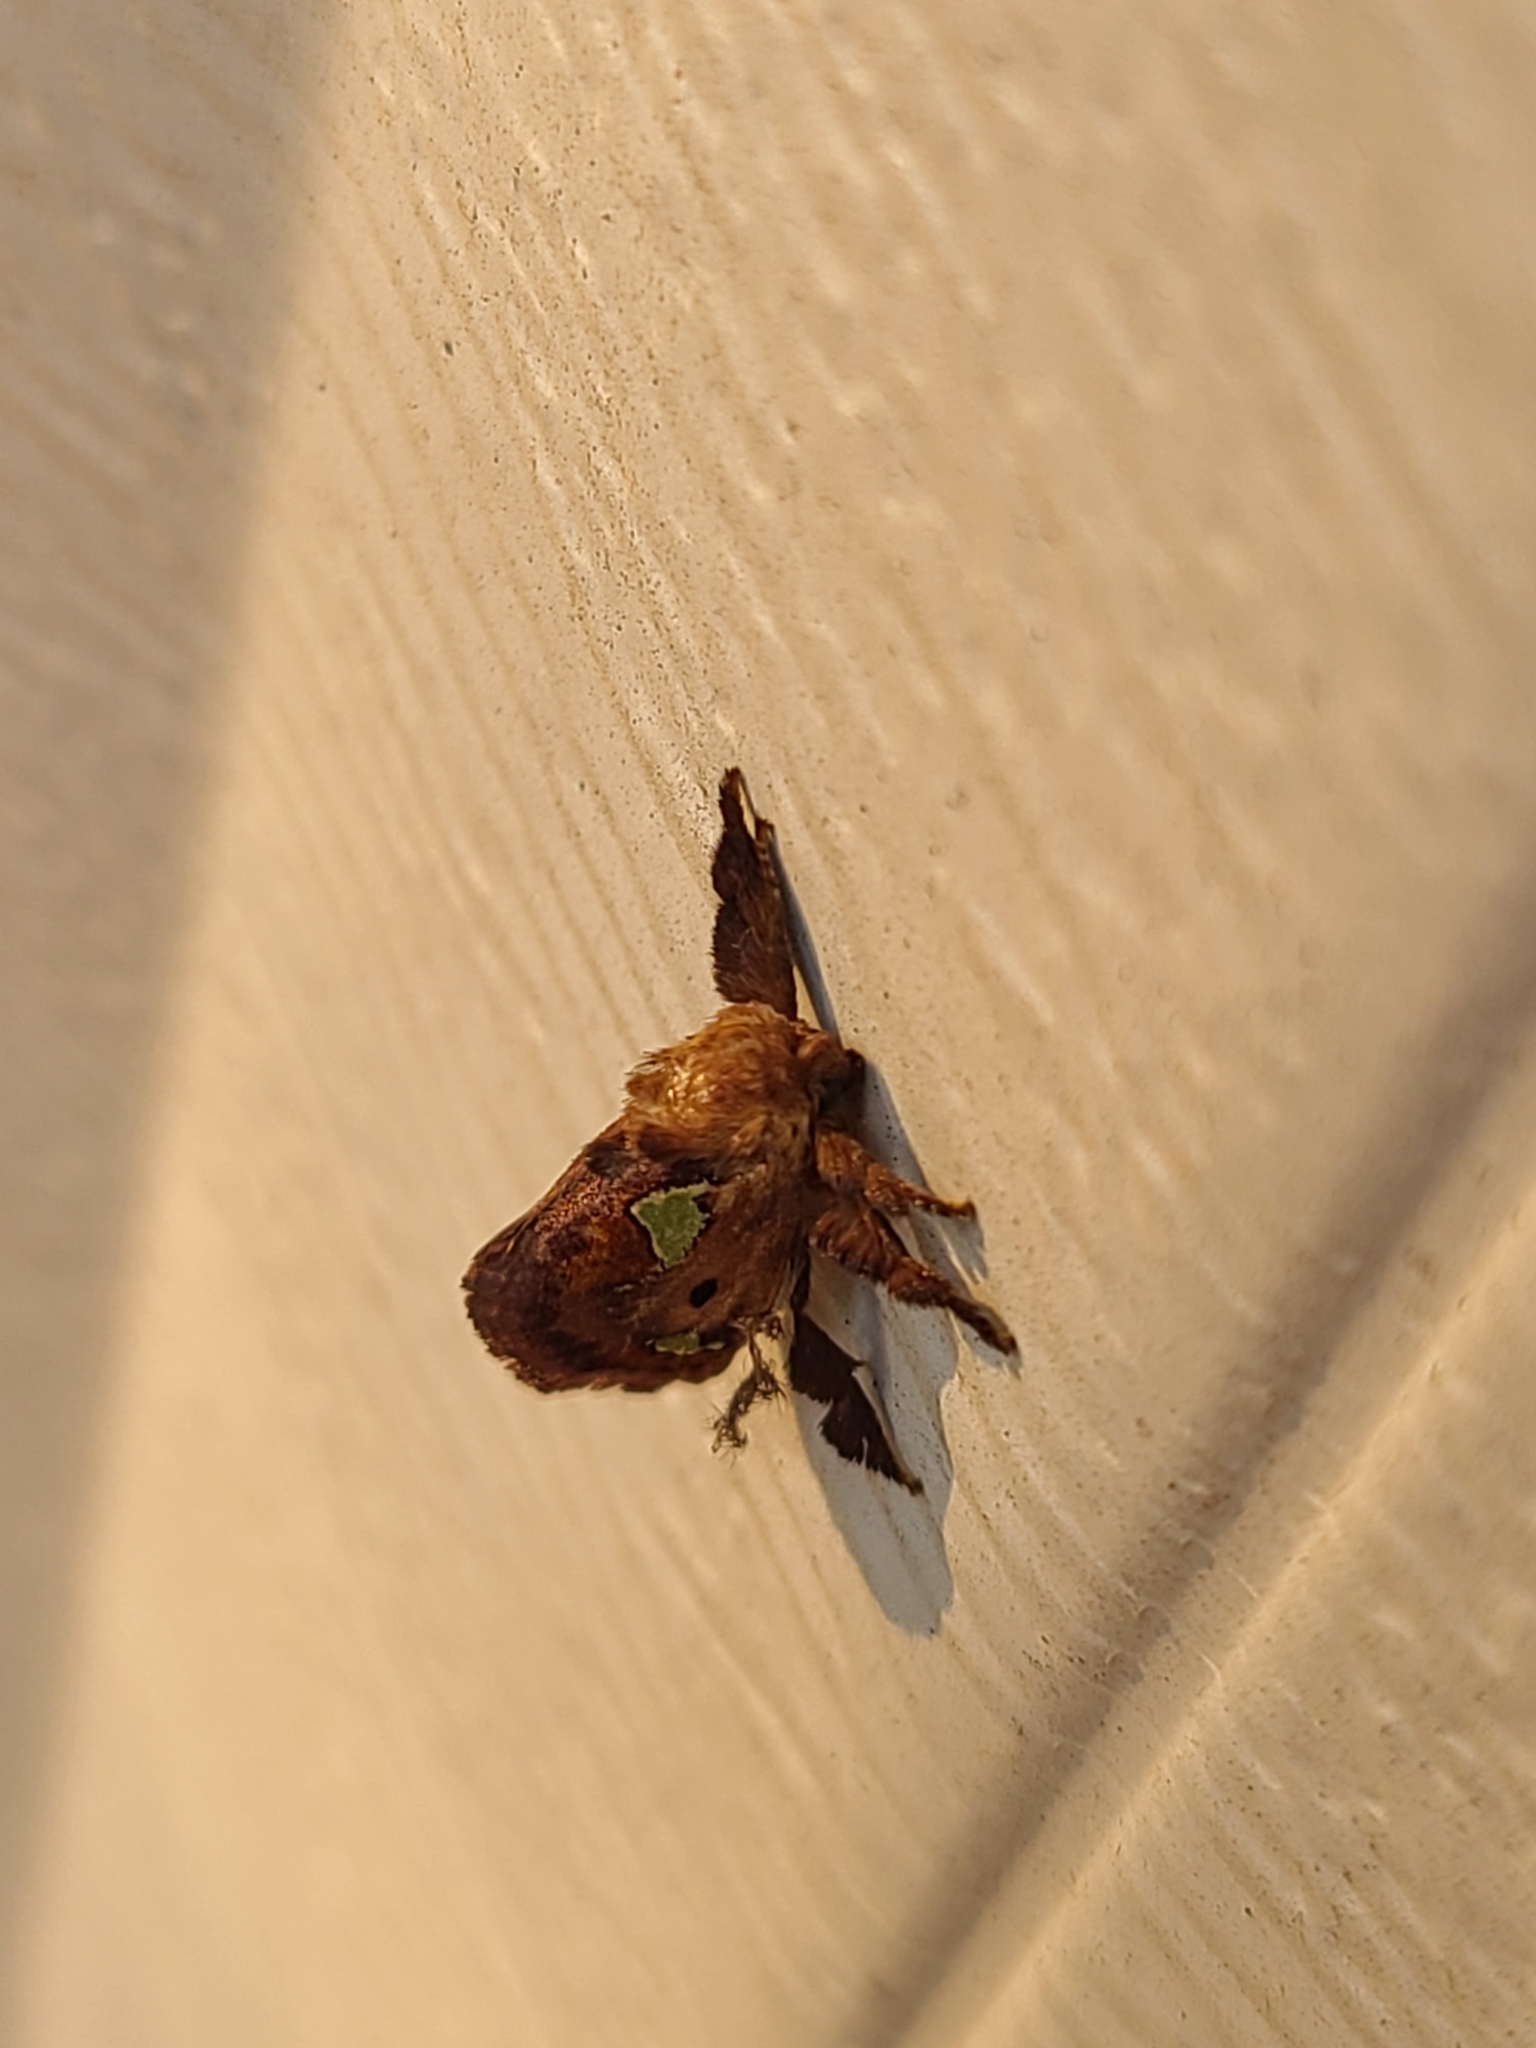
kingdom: Animalia
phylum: Arthropoda
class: Insecta
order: Lepidoptera
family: Limacodidae
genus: Euclea
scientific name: Euclea delphinii
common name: Spiny oak-slug moth
